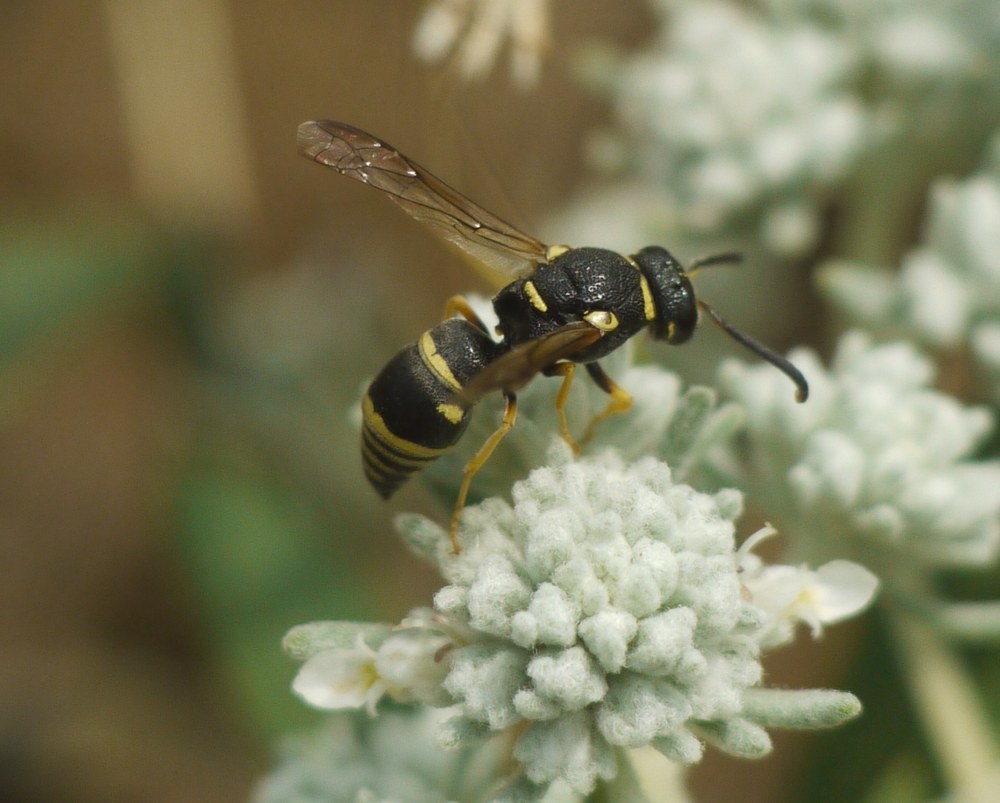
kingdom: Animalia
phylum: Arthropoda
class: Insecta
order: Hymenoptera
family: Eumenidae
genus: Syneuodynerus
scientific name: Syneuodynerus egregius
